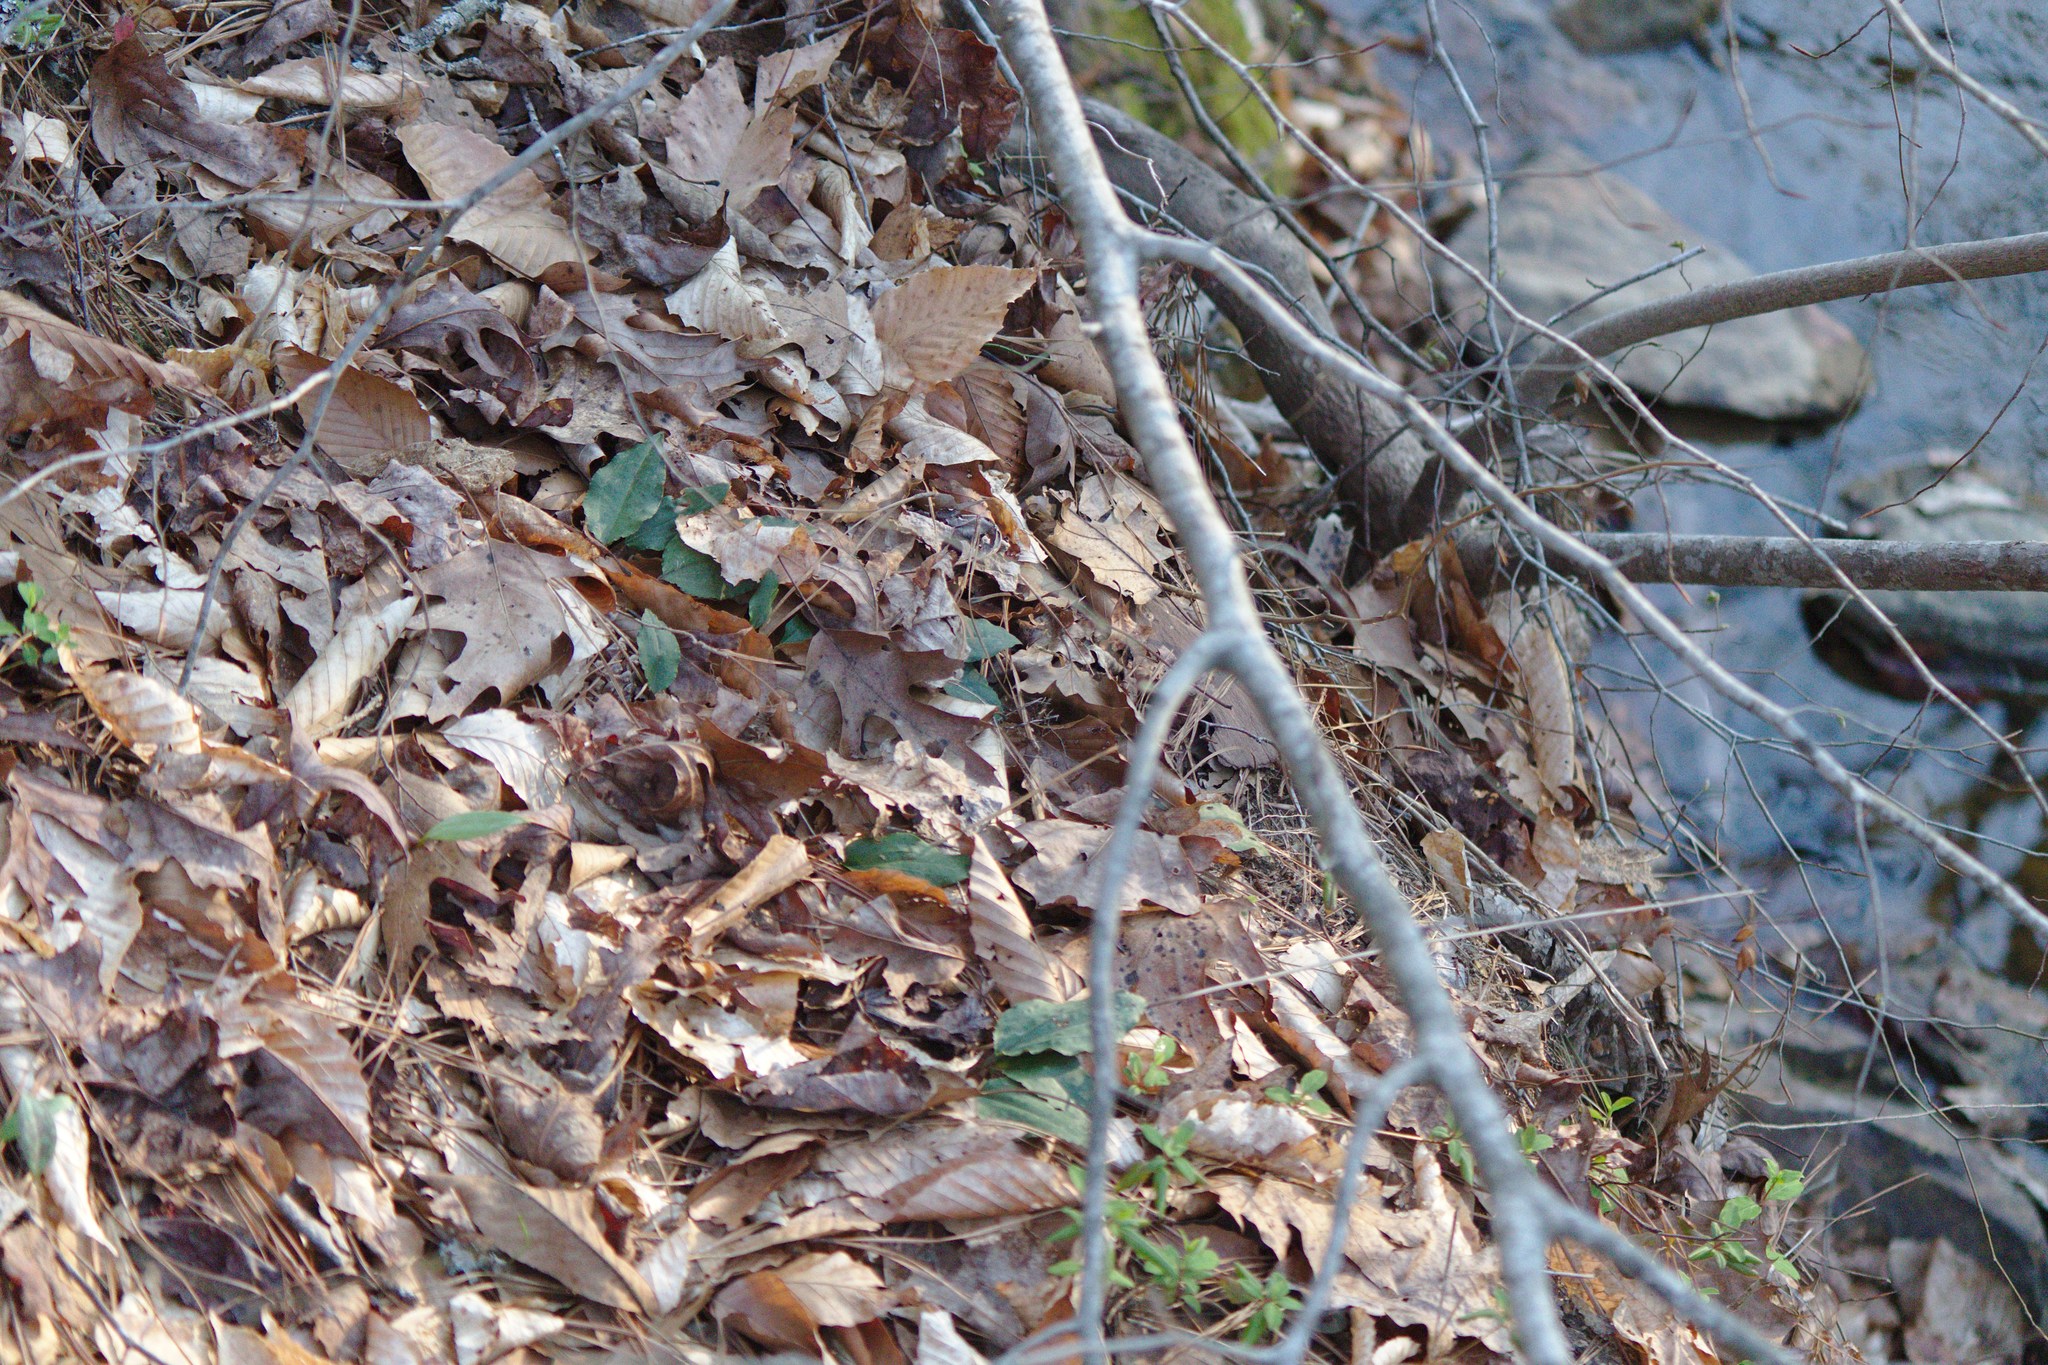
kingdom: Plantae
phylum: Tracheophyta
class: Liliopsida
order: Asparagales
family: Orchidaceae
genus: Tipularia
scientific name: Tipularia discolor
